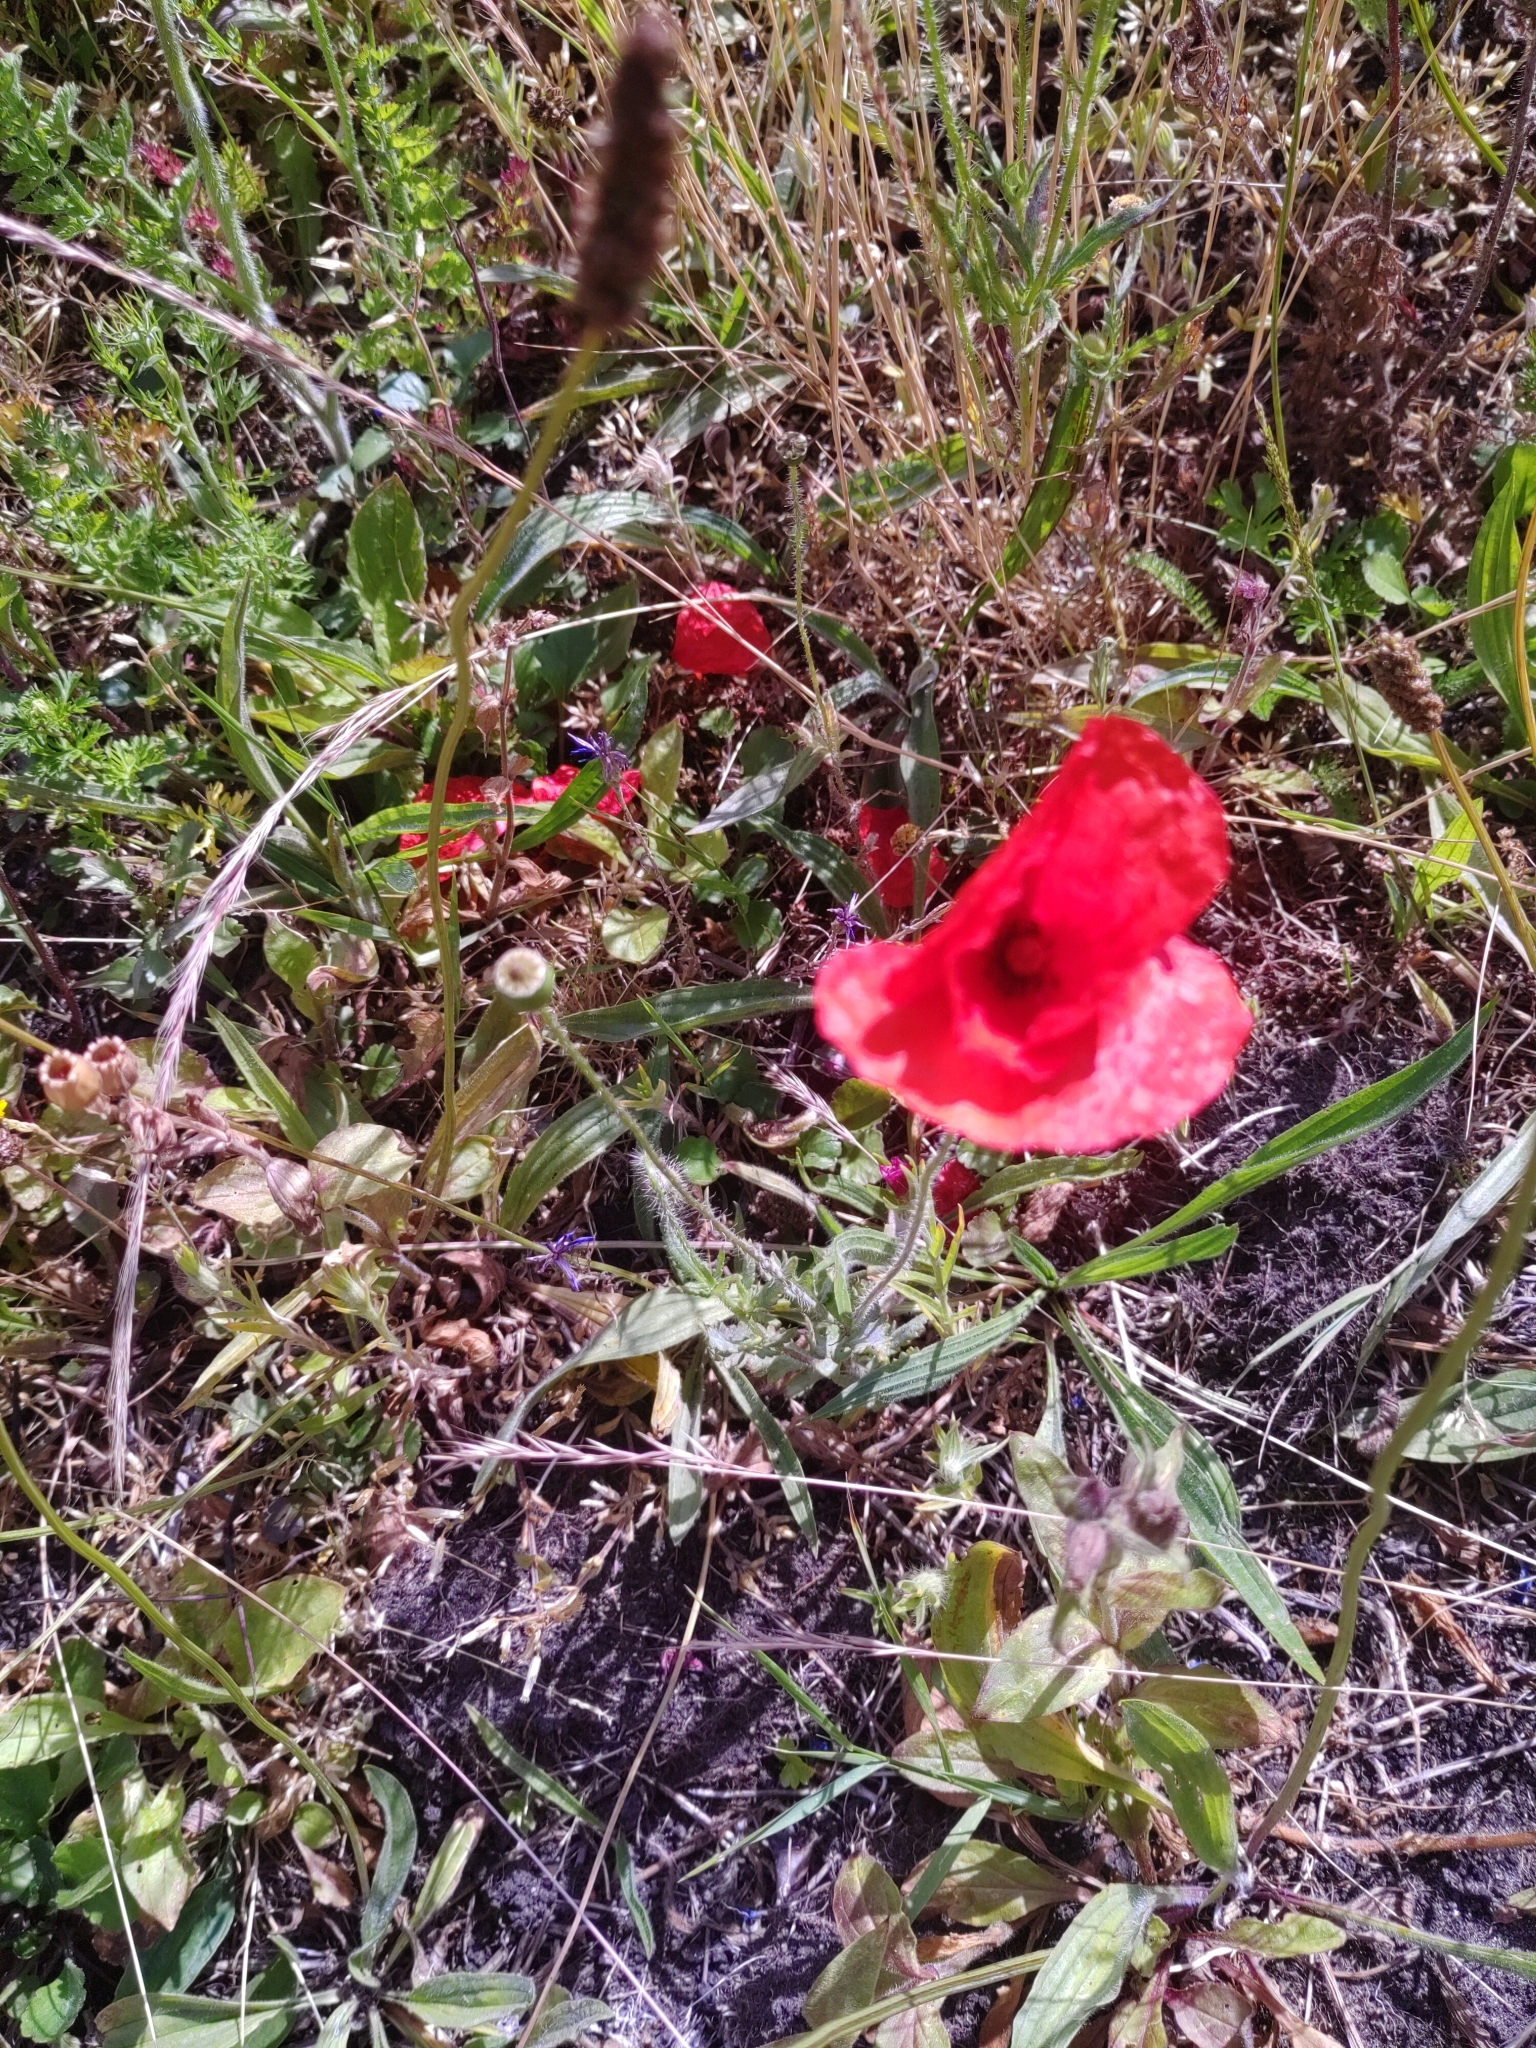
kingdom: Plantae
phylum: Tracheophyta
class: Magnoliopsida
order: Ranunculales
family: Papaveraceae
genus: Papaver
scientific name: Papaver rhoeas
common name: Corn poppy
